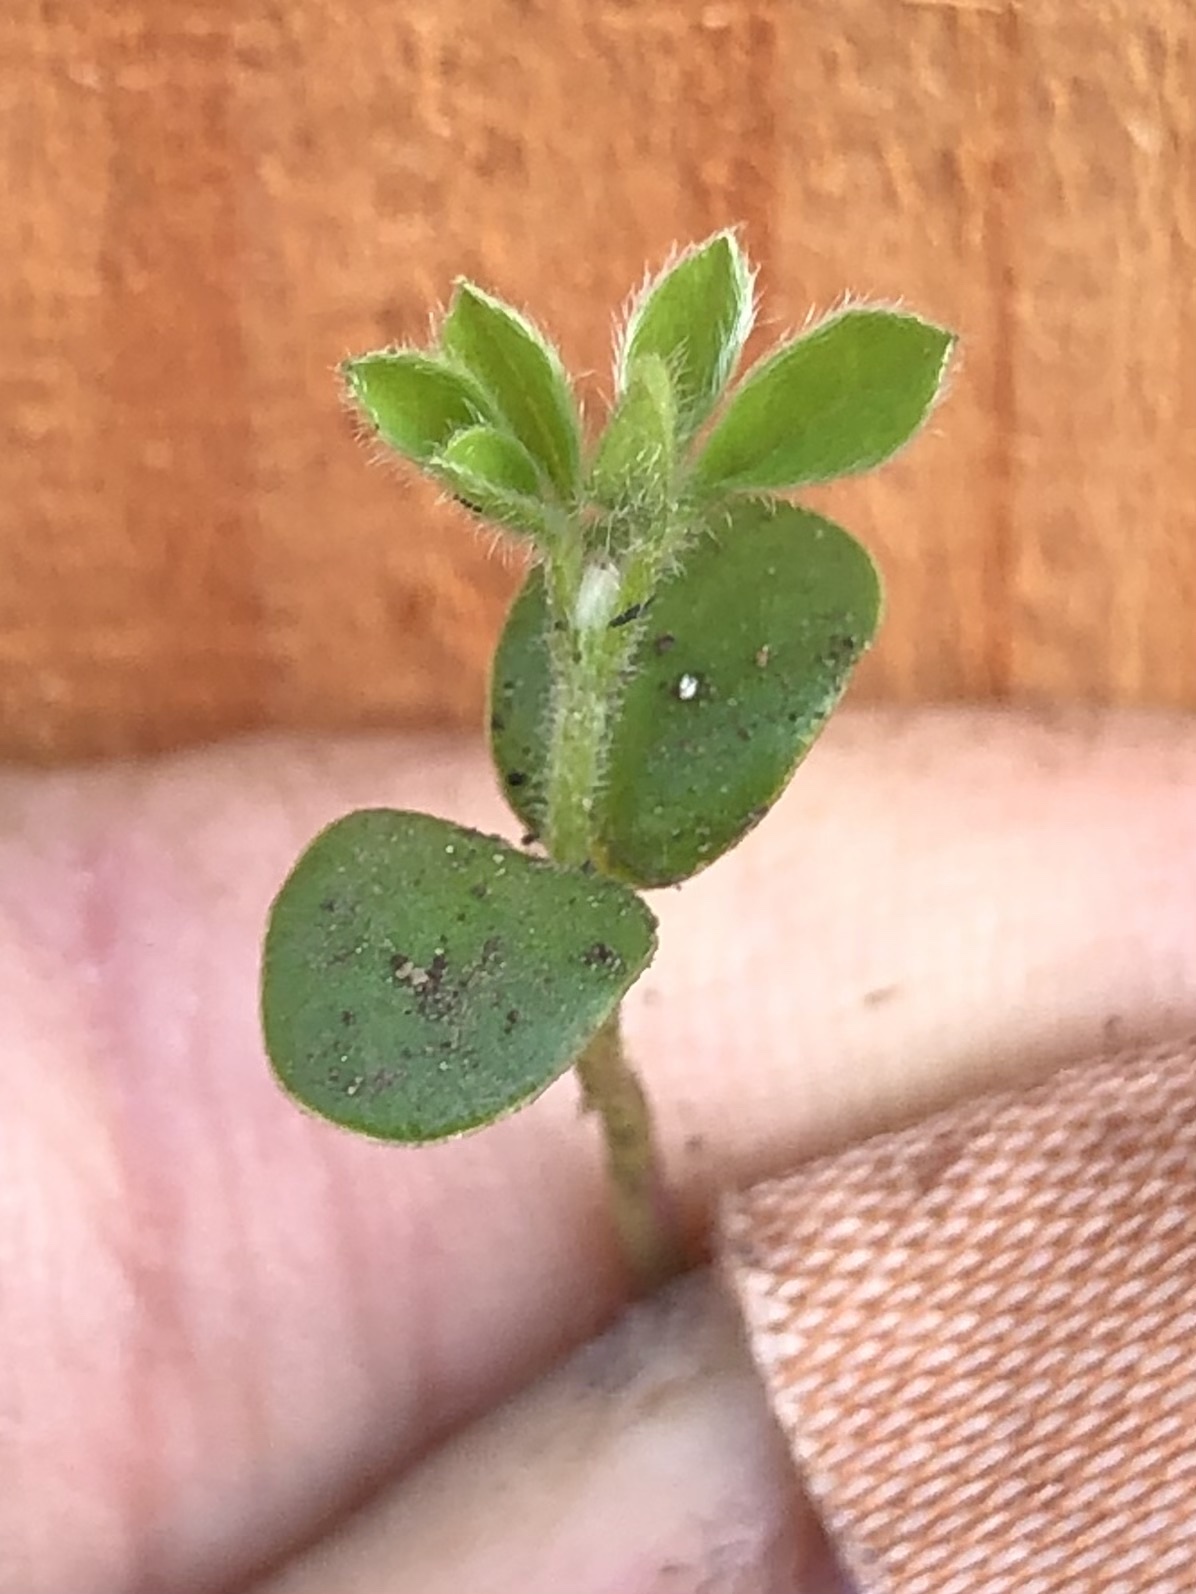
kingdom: Plantae
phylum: Tracheophyta
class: Magnoliopsida
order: Fabales
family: Fabaceae
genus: Genista
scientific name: Genista monspessulana
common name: Montpellier broom
